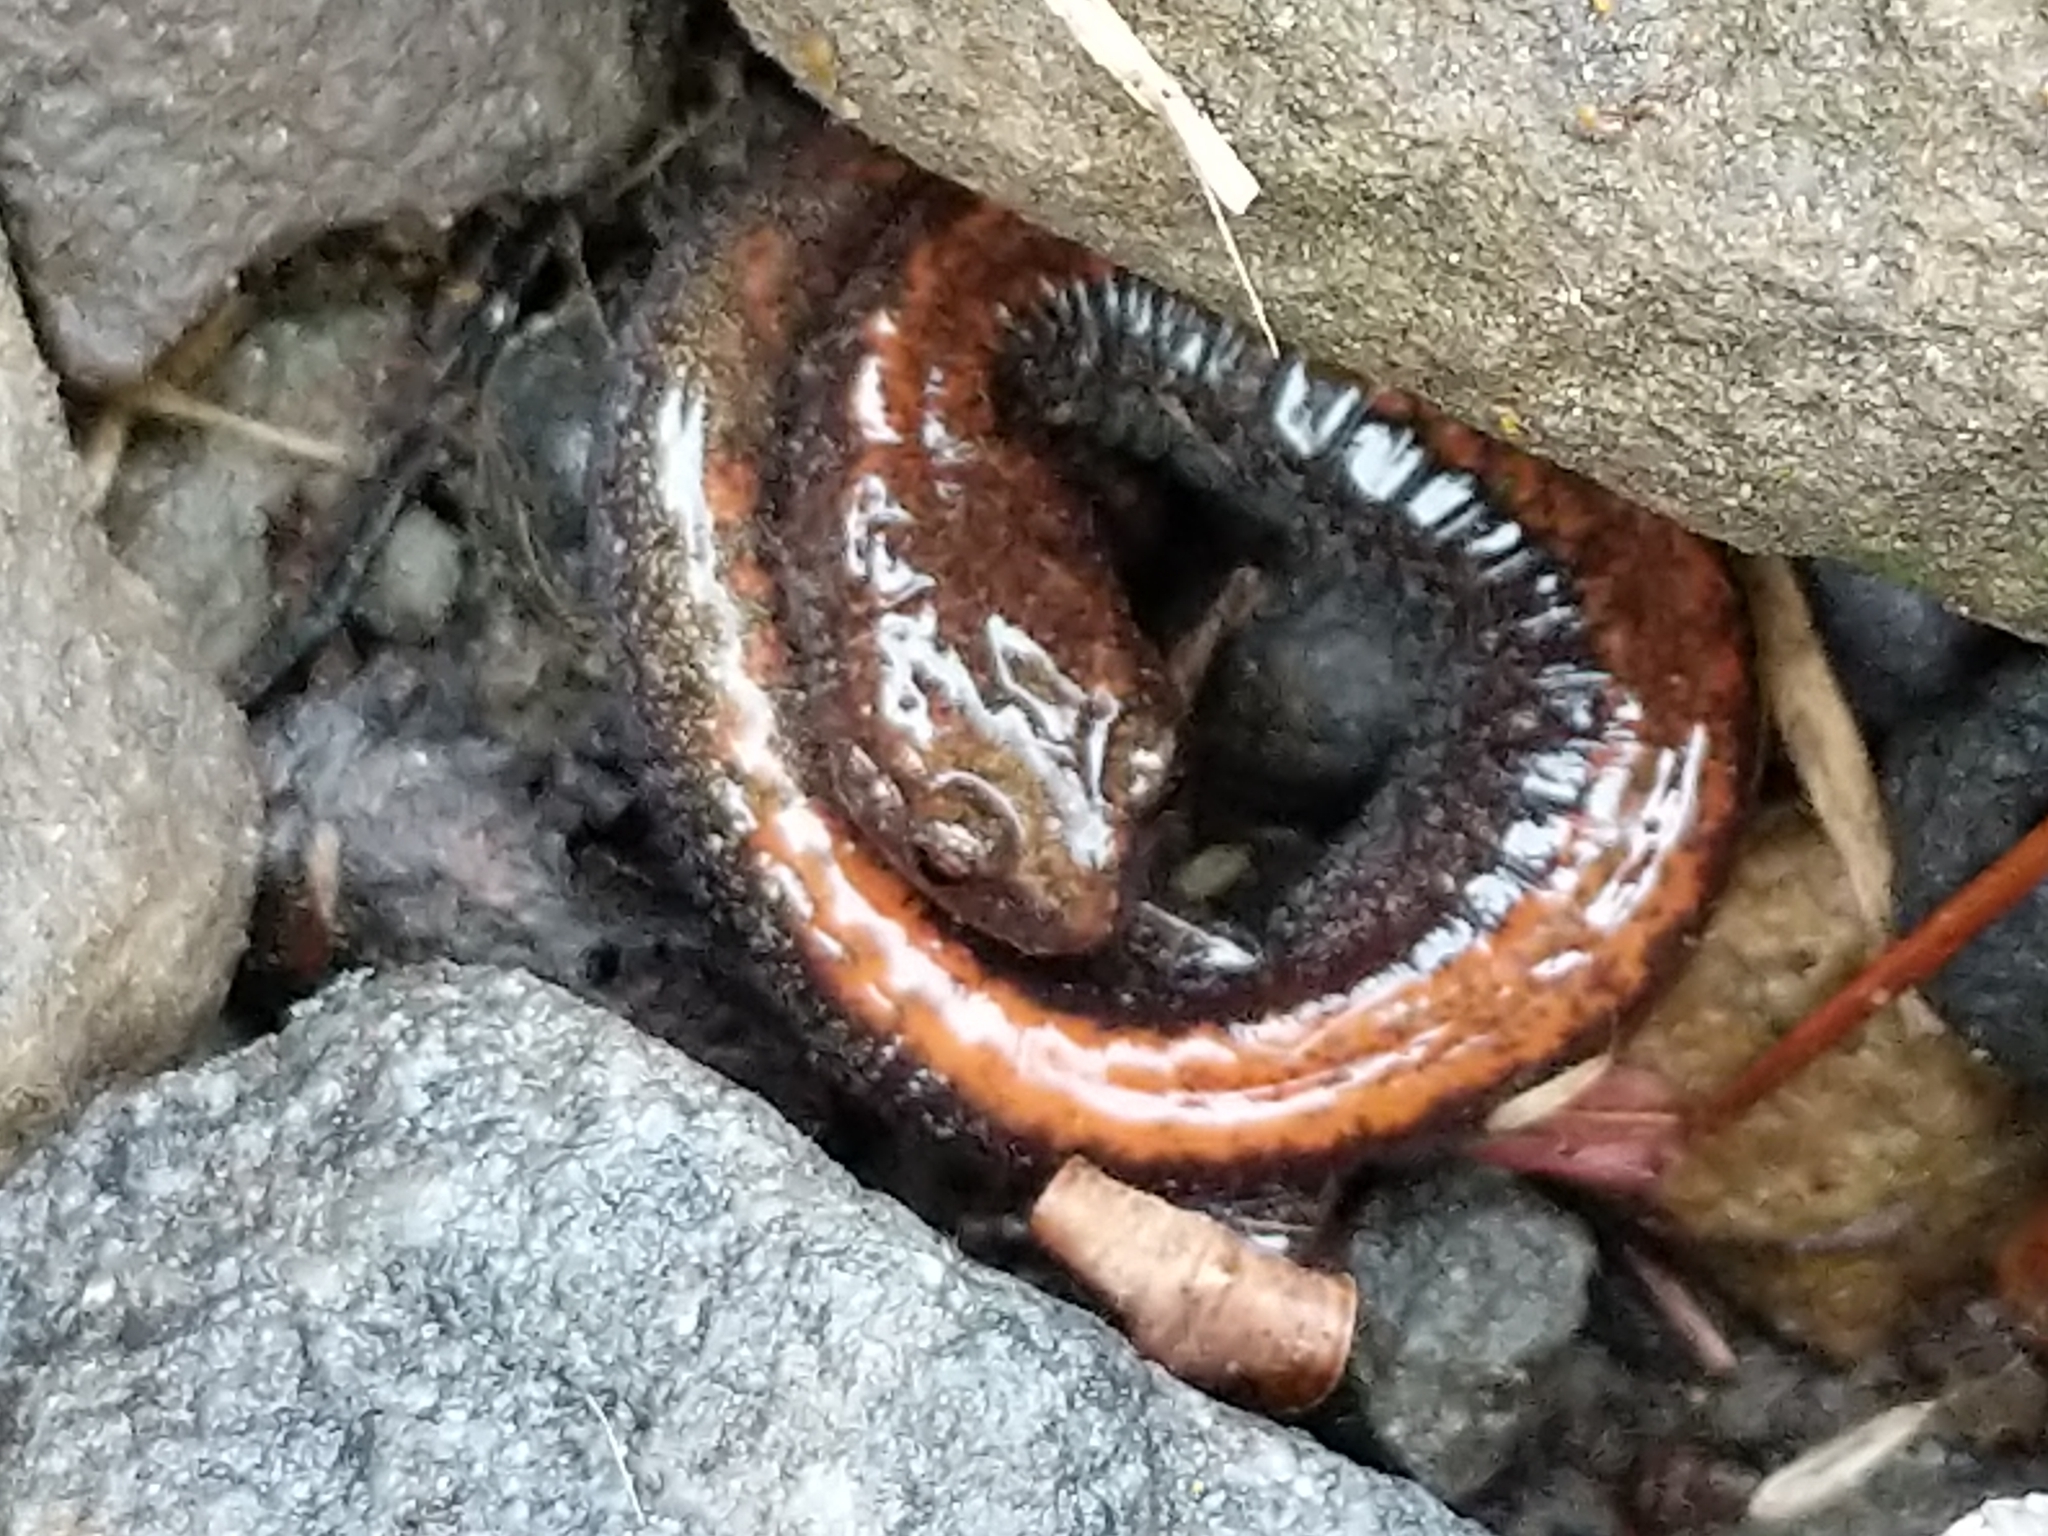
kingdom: Animalia
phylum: Chordata
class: Amphibia
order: Caudata
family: Plethodontidae
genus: Plethodon
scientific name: Plethodon cinereus
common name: Redback salamander
